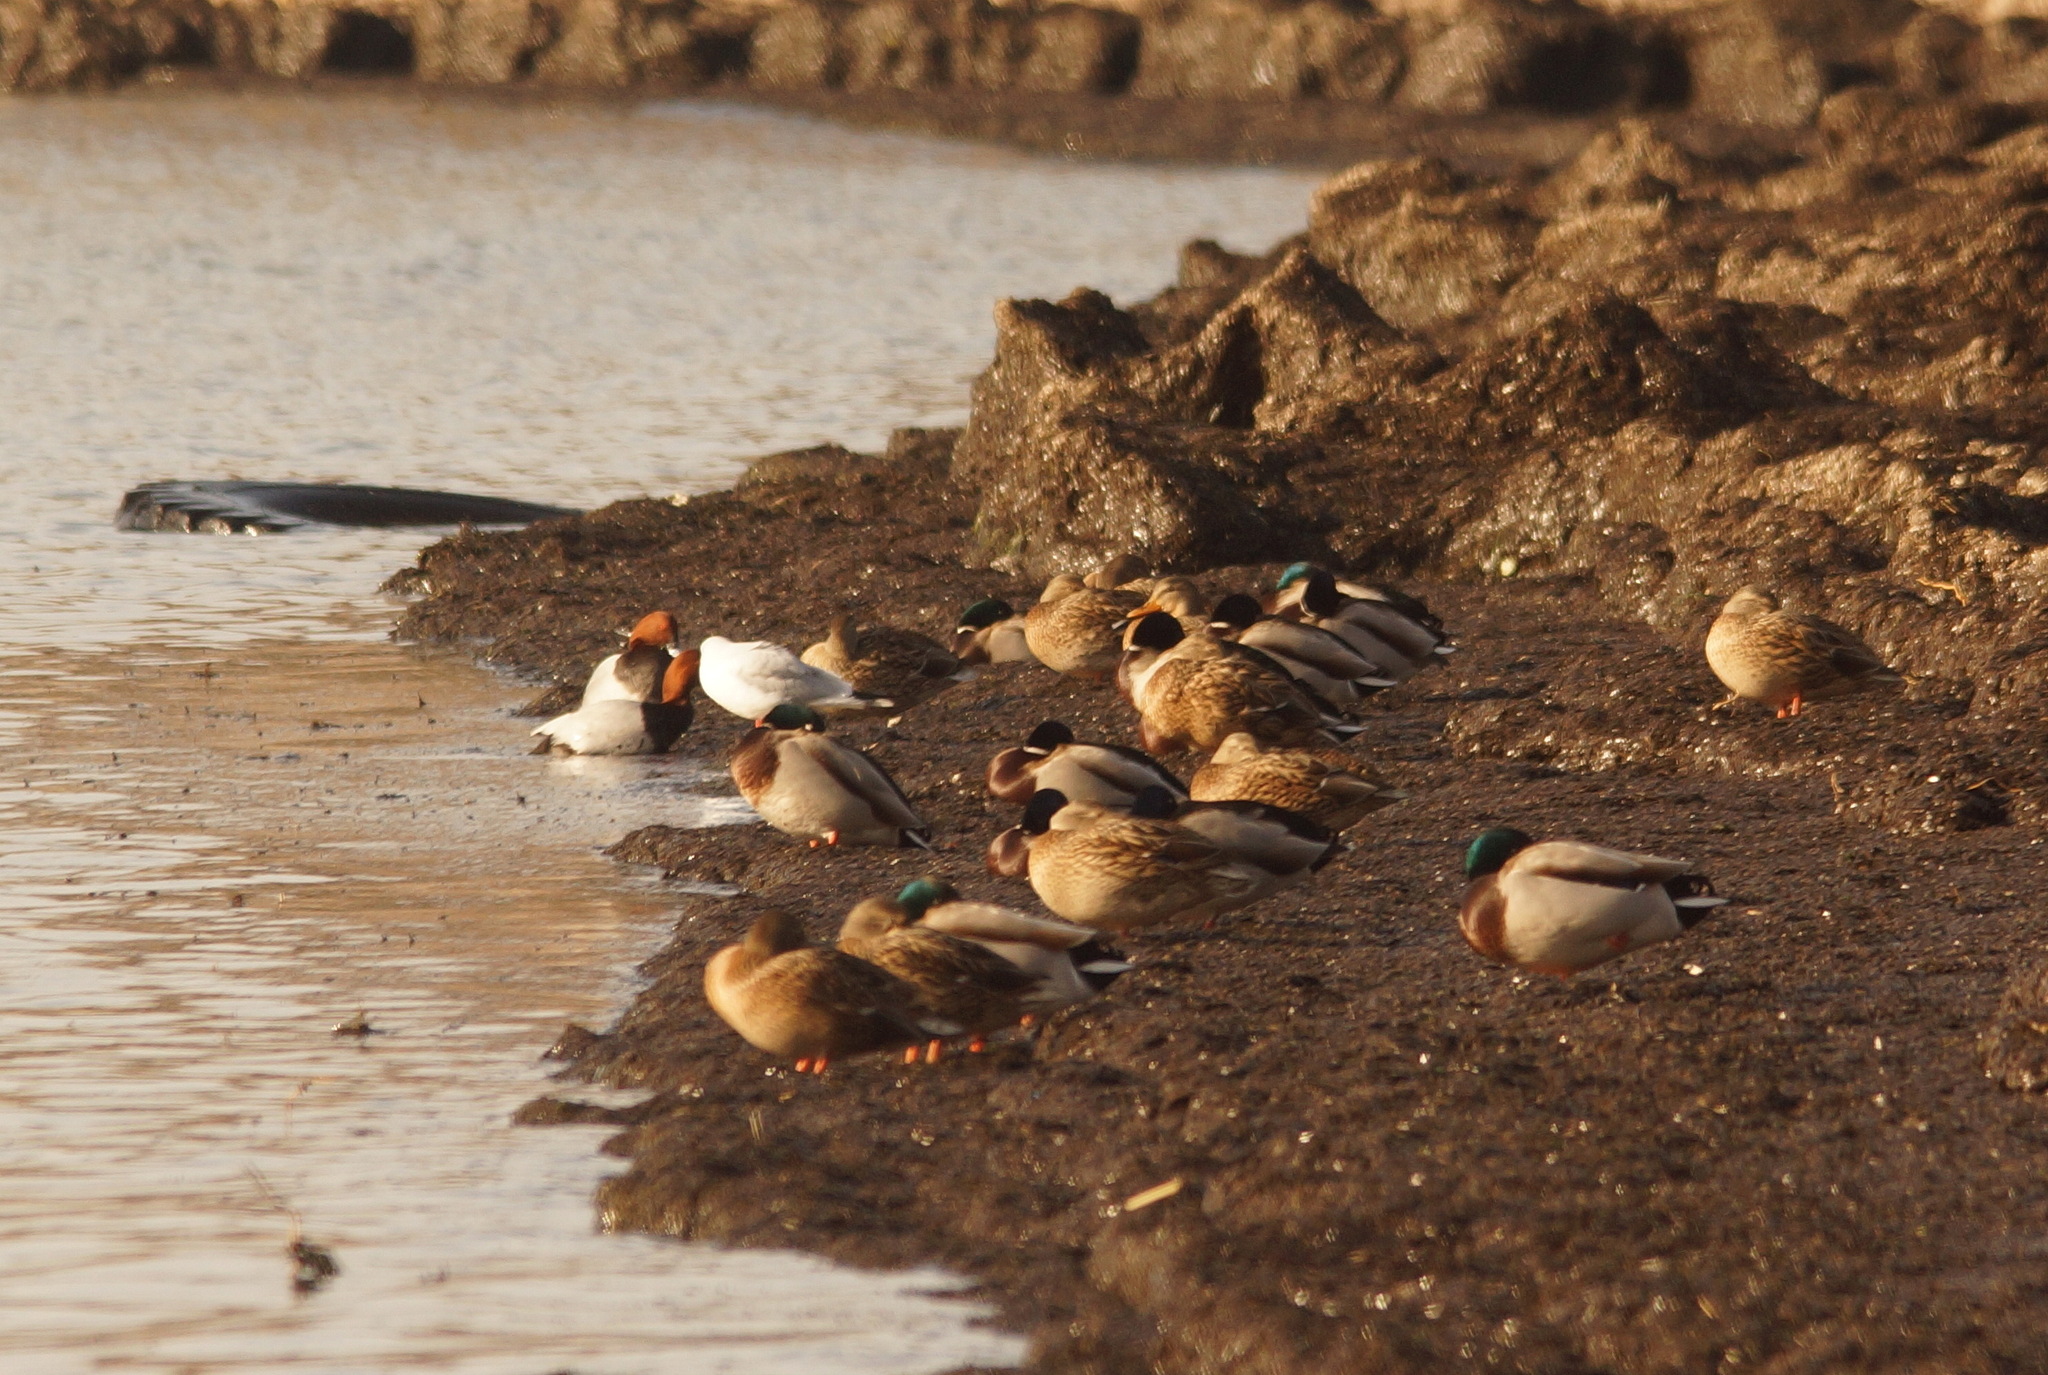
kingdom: Animalia
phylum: Chordata
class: Aves
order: Anseriformes
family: Anatidae
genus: Anas
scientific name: Anas platyrhynchos
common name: Mallard
